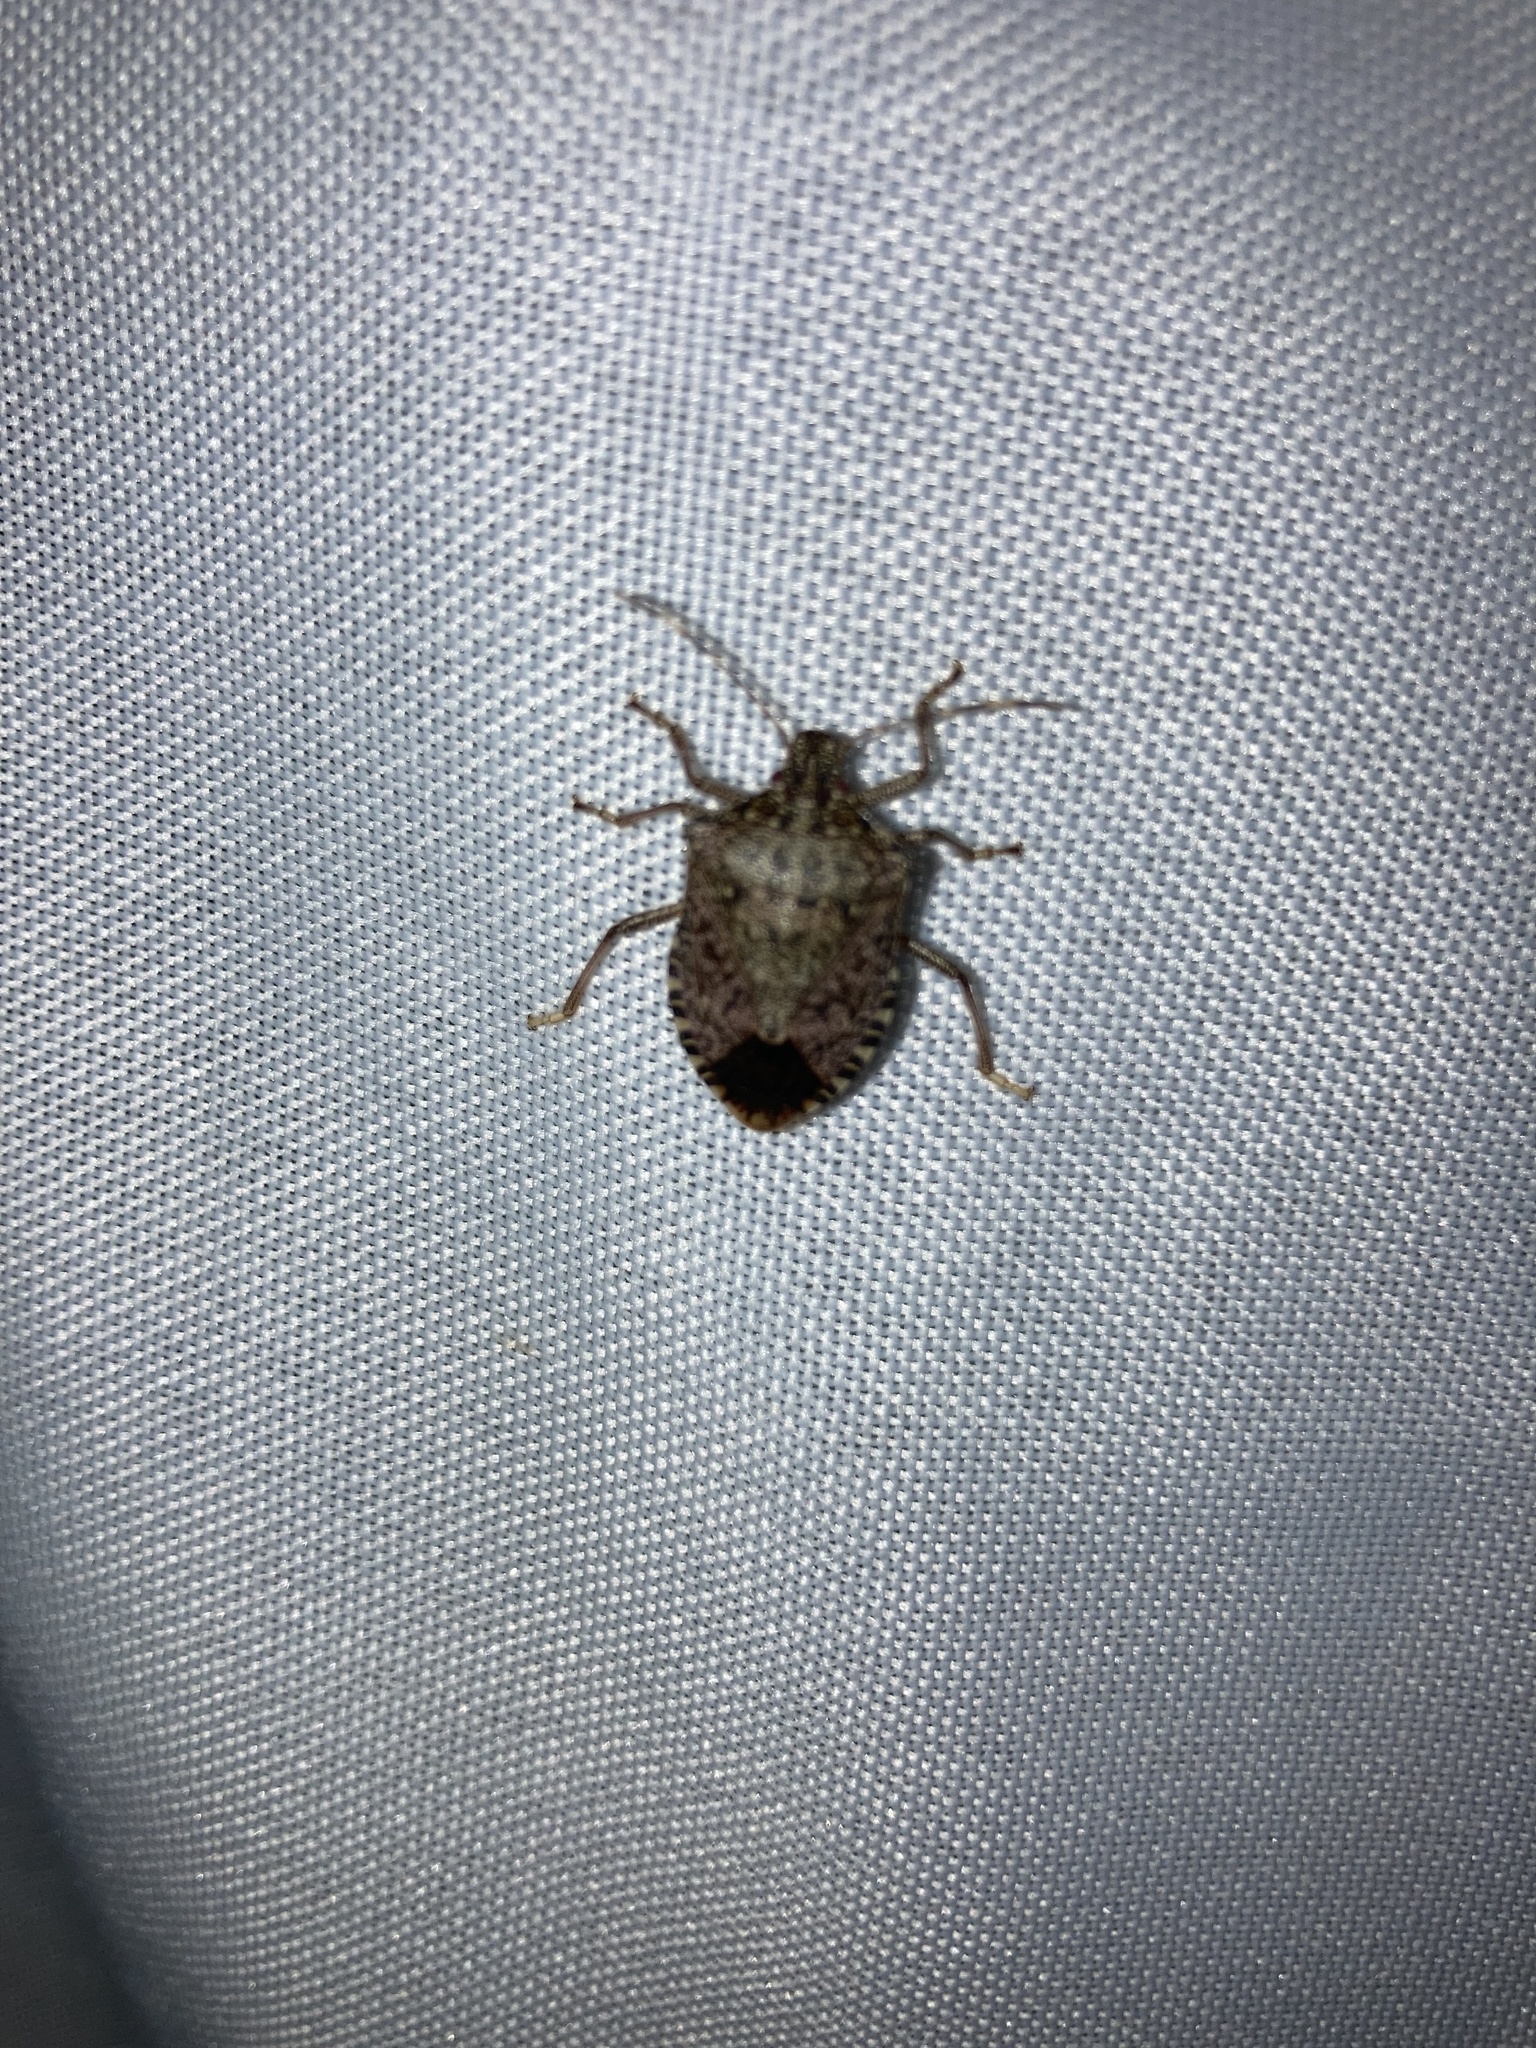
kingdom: Animalia
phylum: Arthropoda
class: Insecta
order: Hemiptera
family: Pentatomidae
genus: Halyomorpha
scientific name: Halyomorpha halys
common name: Brown marmorated stink bug
